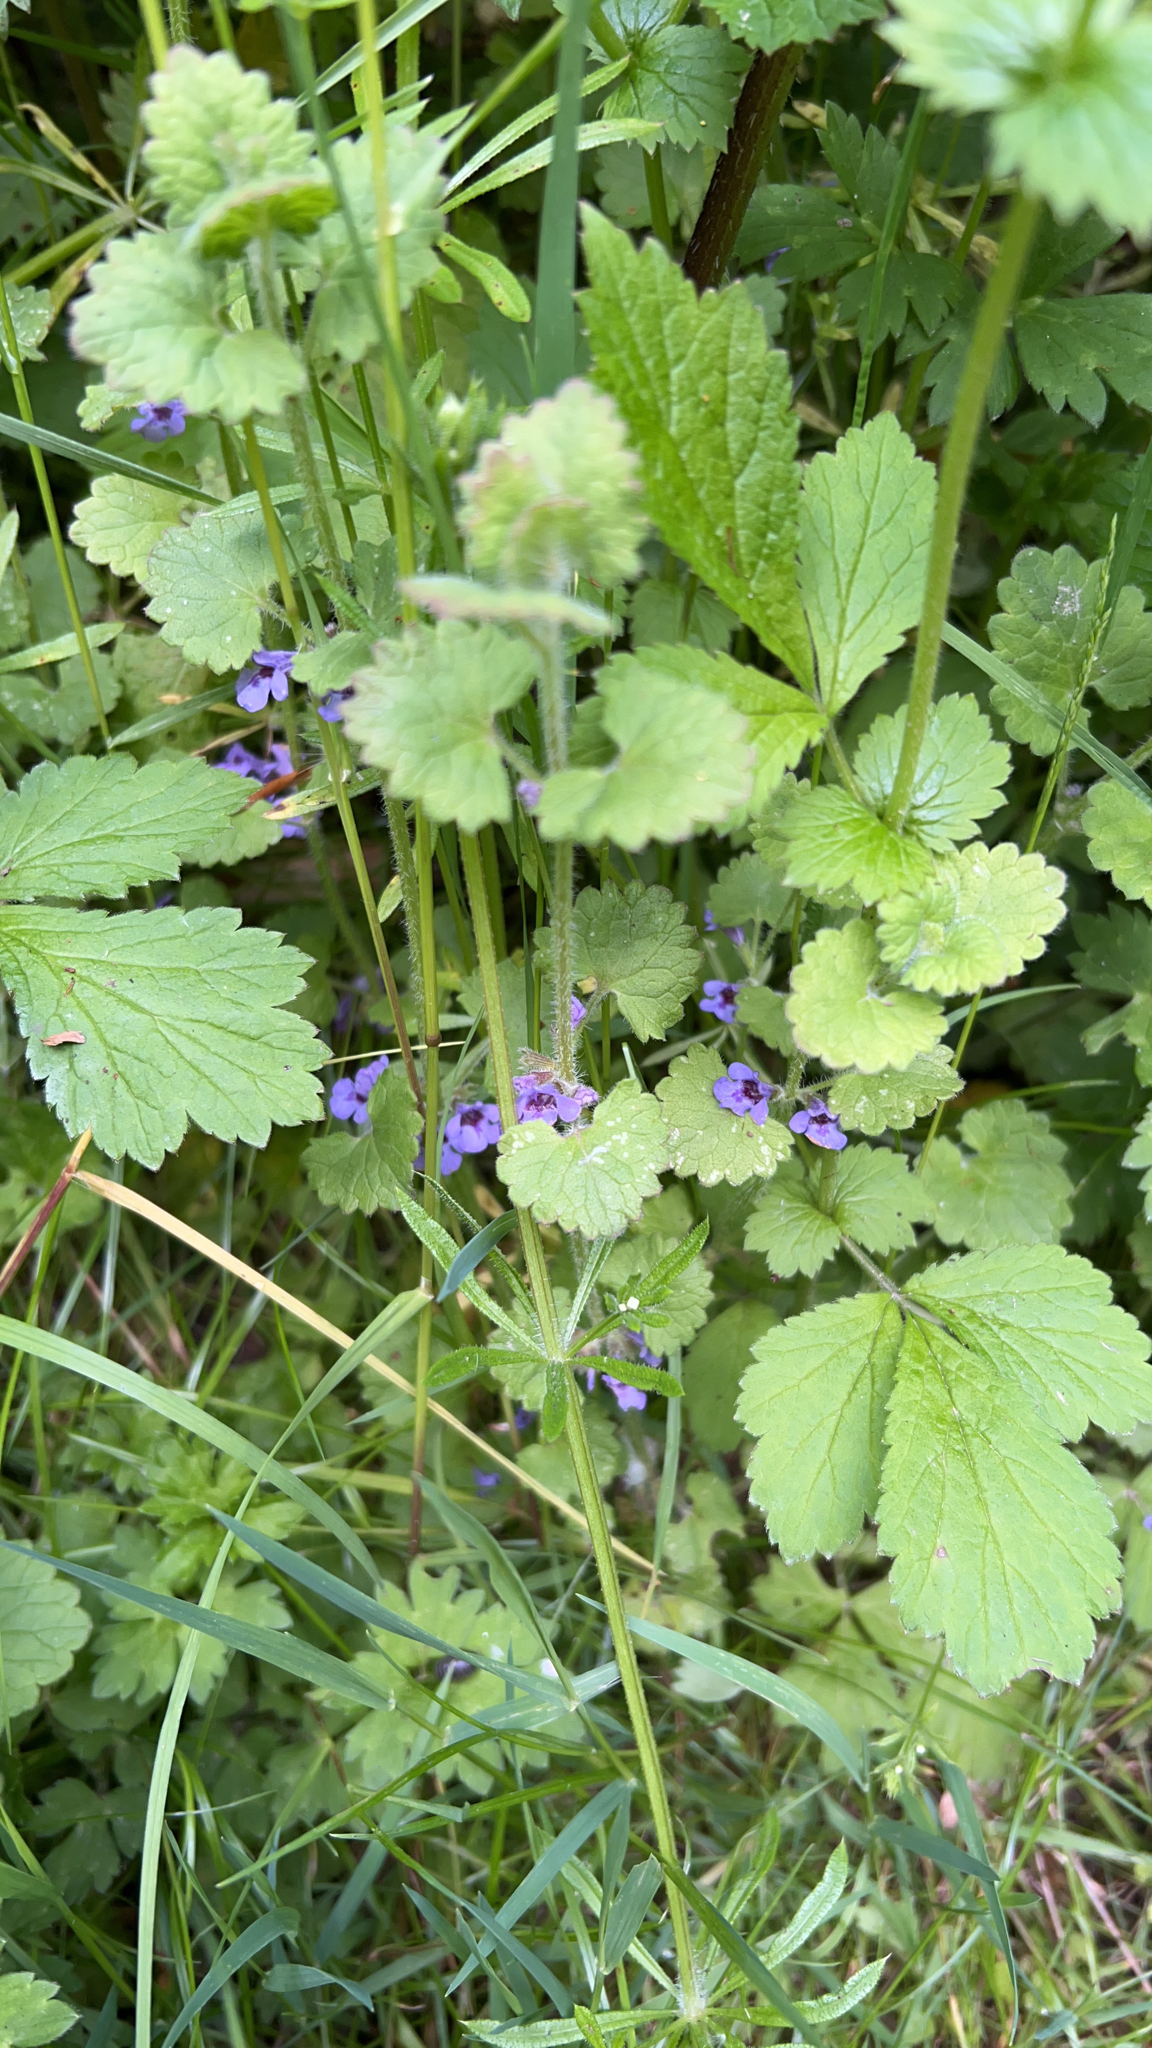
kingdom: Plantae
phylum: Tracheophyta
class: Magnoliopsida
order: Lamiales
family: Lamiaceae
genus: Glechoma
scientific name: Glechoma hederacea
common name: Ground ivy
